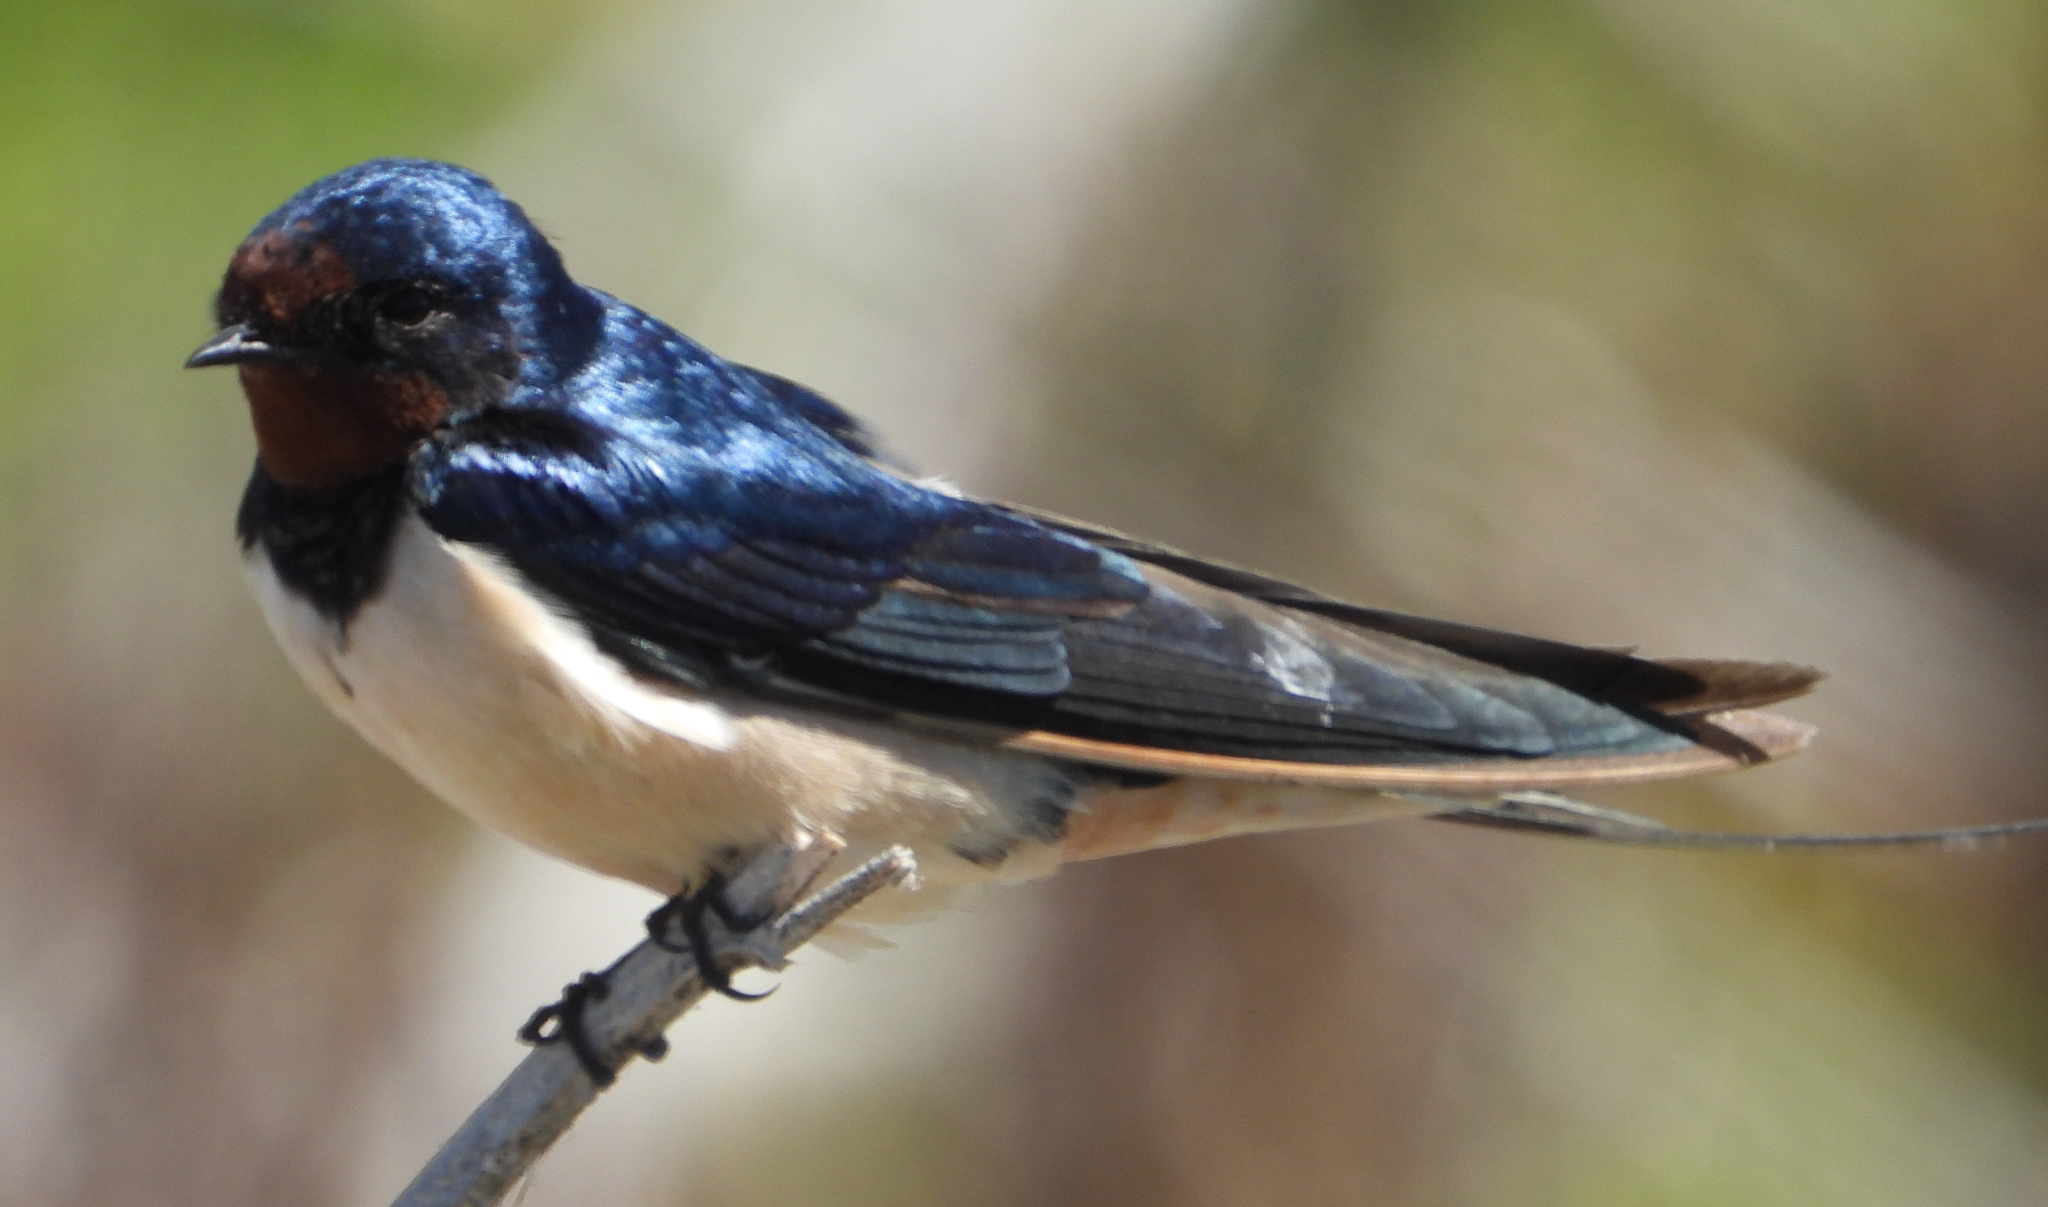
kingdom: Animalia
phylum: Chordata
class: Aves
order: Passeriformes
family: Hirundinidae
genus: Hirundo
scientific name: Hirundo rustica
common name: Barn swallow
